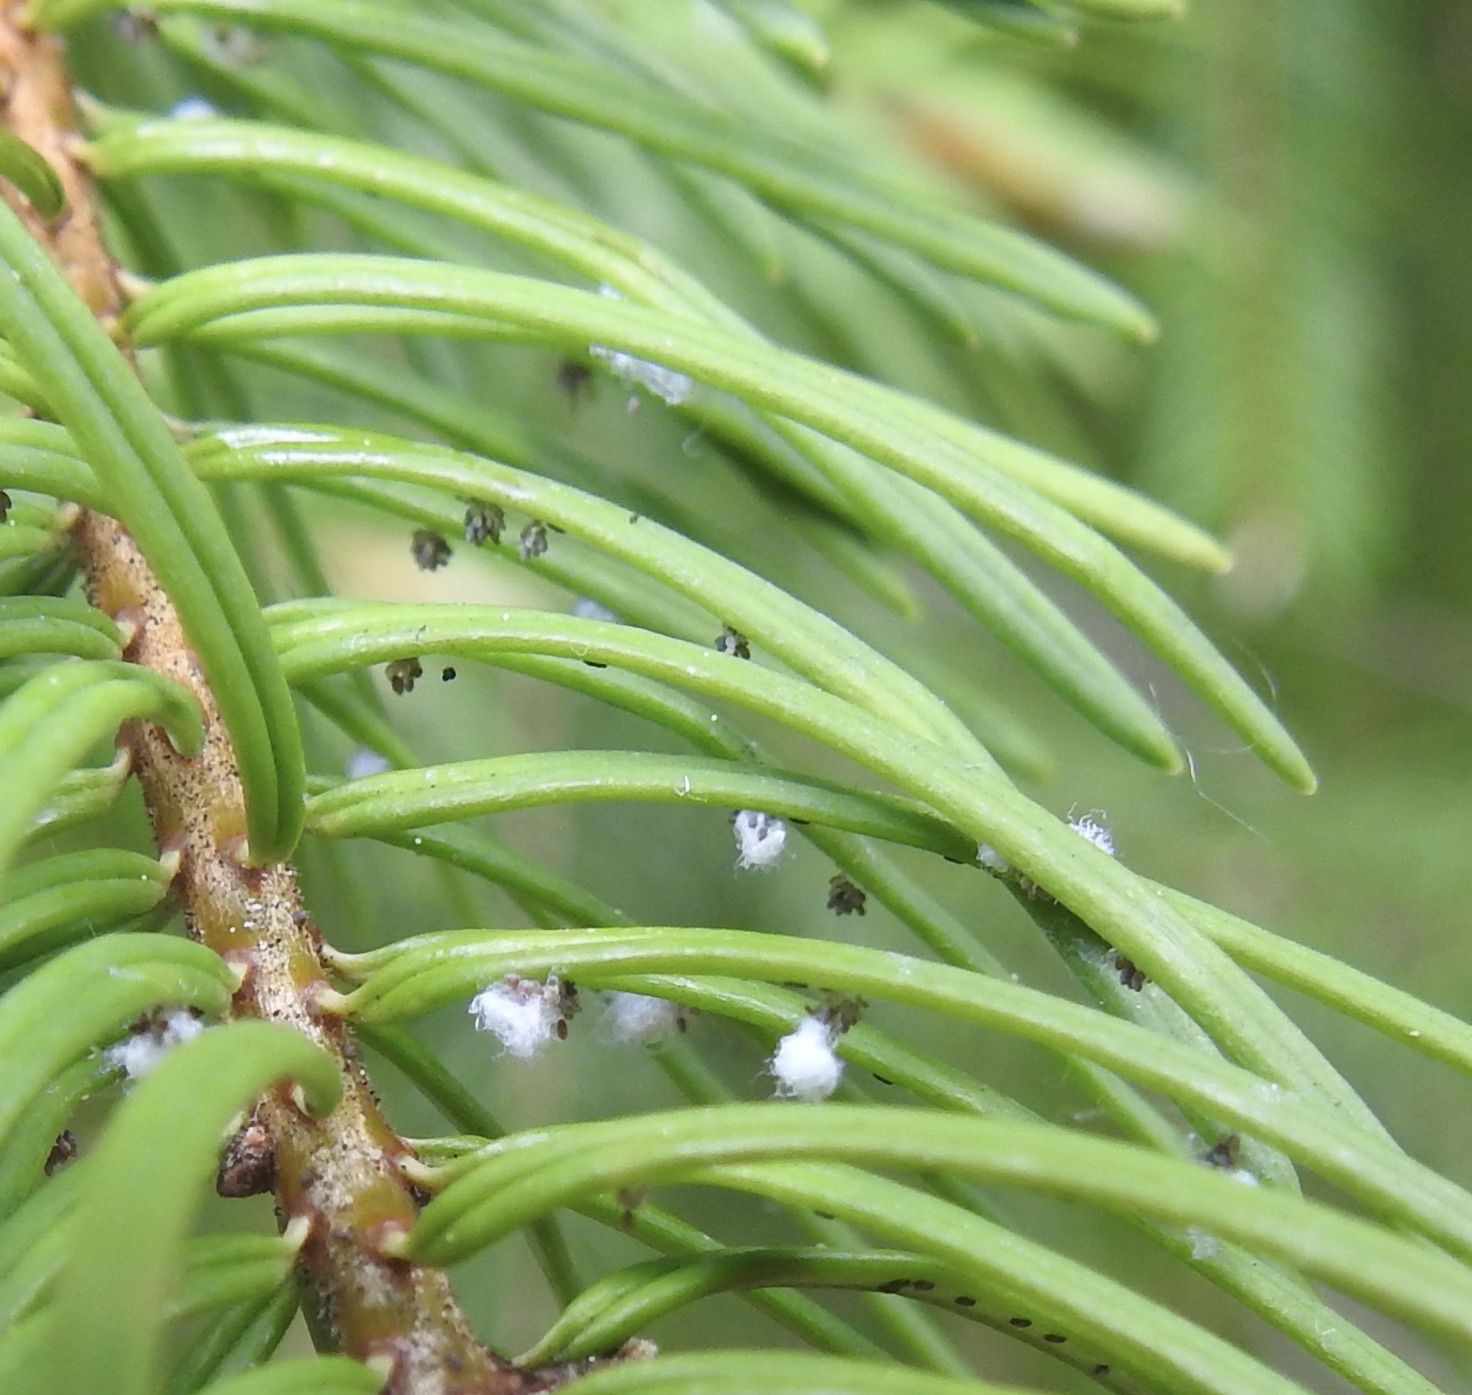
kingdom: Animalia
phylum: Arthropoda
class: Insecta
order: Hemiptera
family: Adelgidae
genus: Adelges
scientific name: Adelges cooleyi
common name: Cooley spruce gall adelgid
